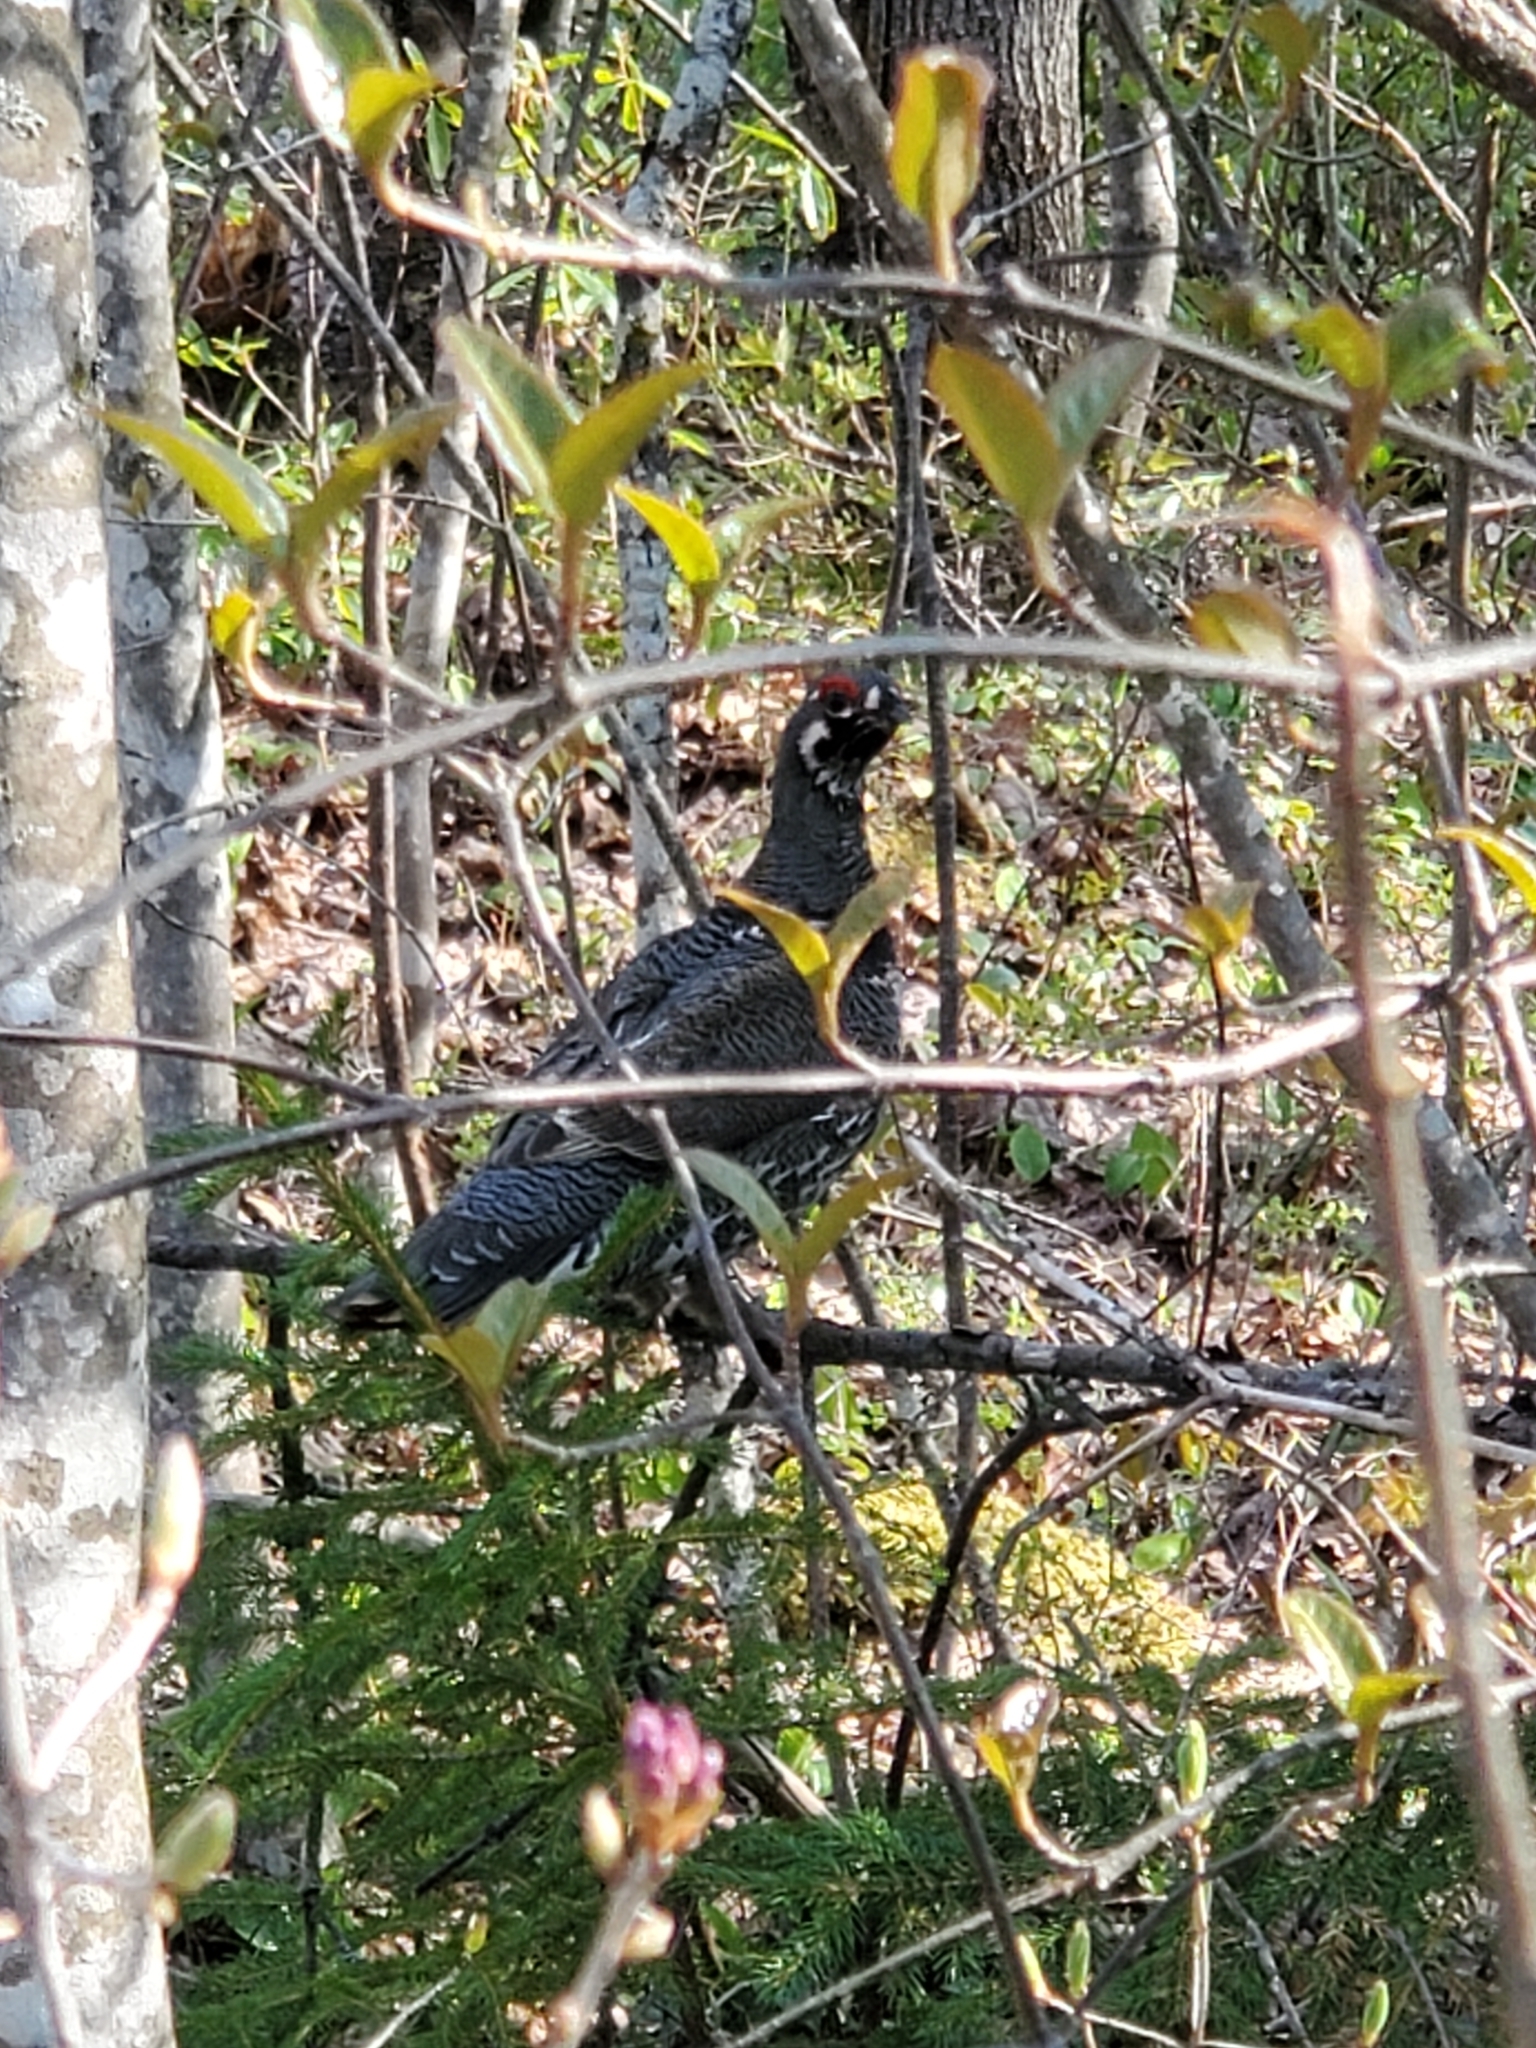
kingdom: Animalia
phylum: Chordata
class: Aves
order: Galliformes
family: Phasianidae
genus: Canachites
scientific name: Canachites canadensis
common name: Spruce grouse
